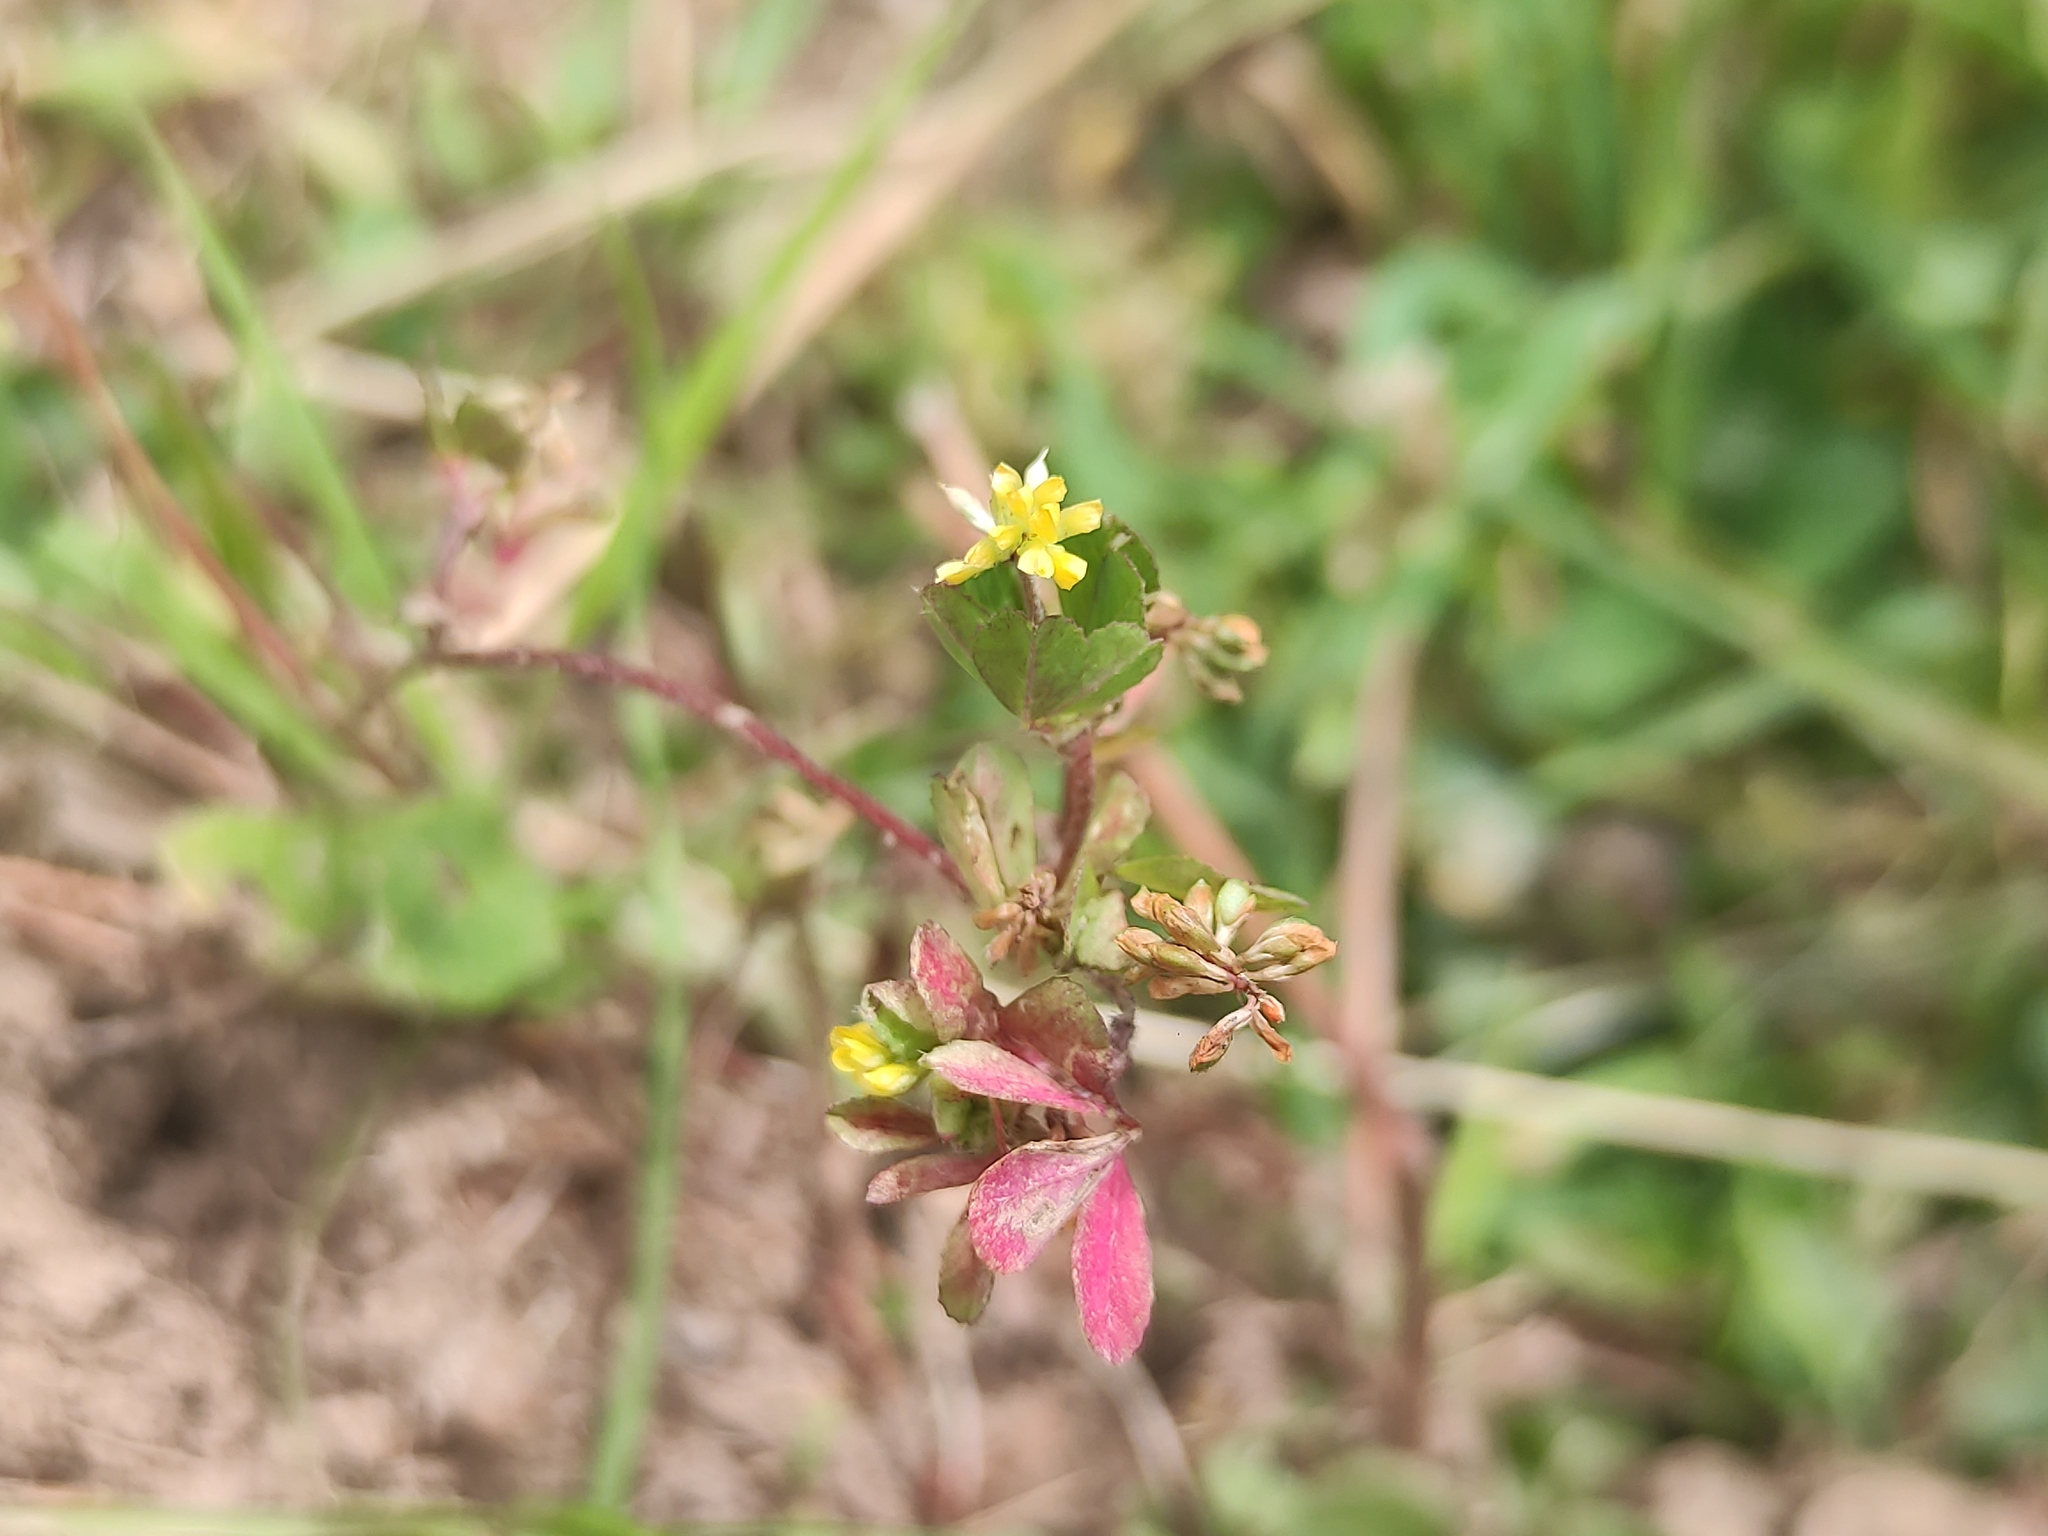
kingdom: Plantae
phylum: Tracheophyta
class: Magnoliopsida
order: Fabales
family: Fabaceae
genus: Trifolium
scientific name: Trifolium dubium
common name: Suckling clover
